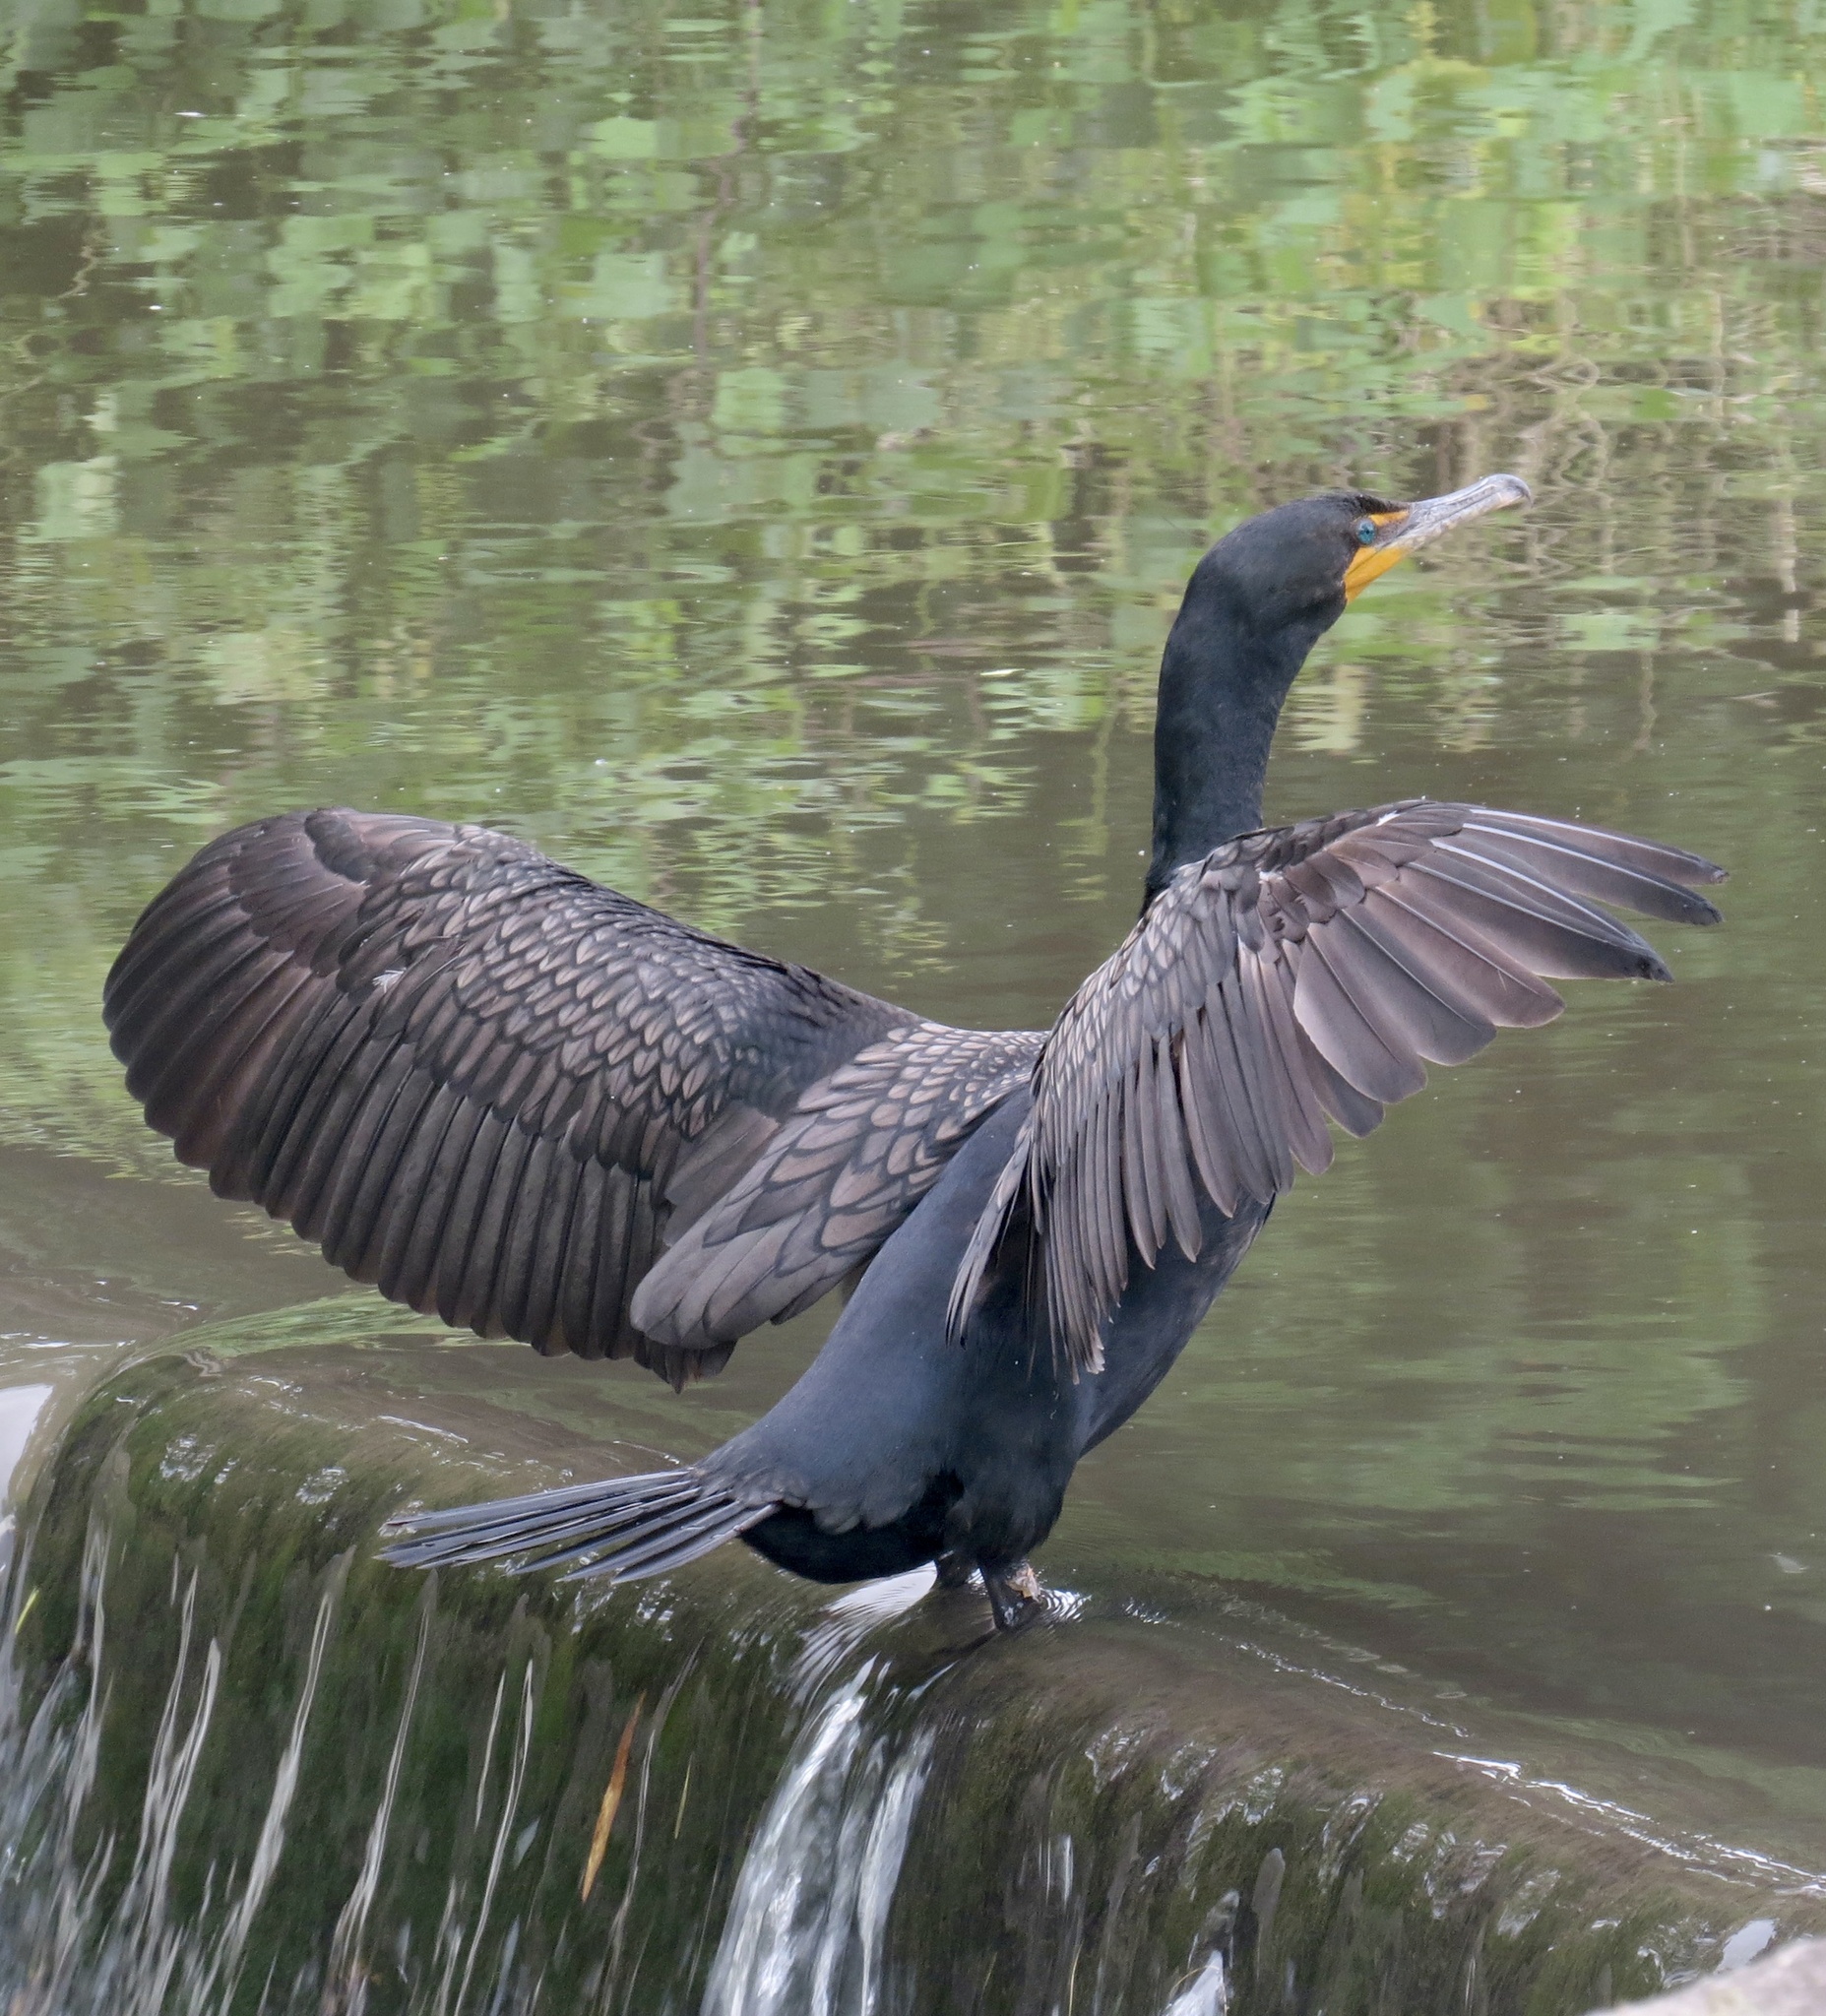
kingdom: Animalia
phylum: Chordata
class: Aves
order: Suliformes
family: Phalacrocoracidae
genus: Phalacrocorax
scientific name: Phalacrocorax auritus
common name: Double-crested cormorant
